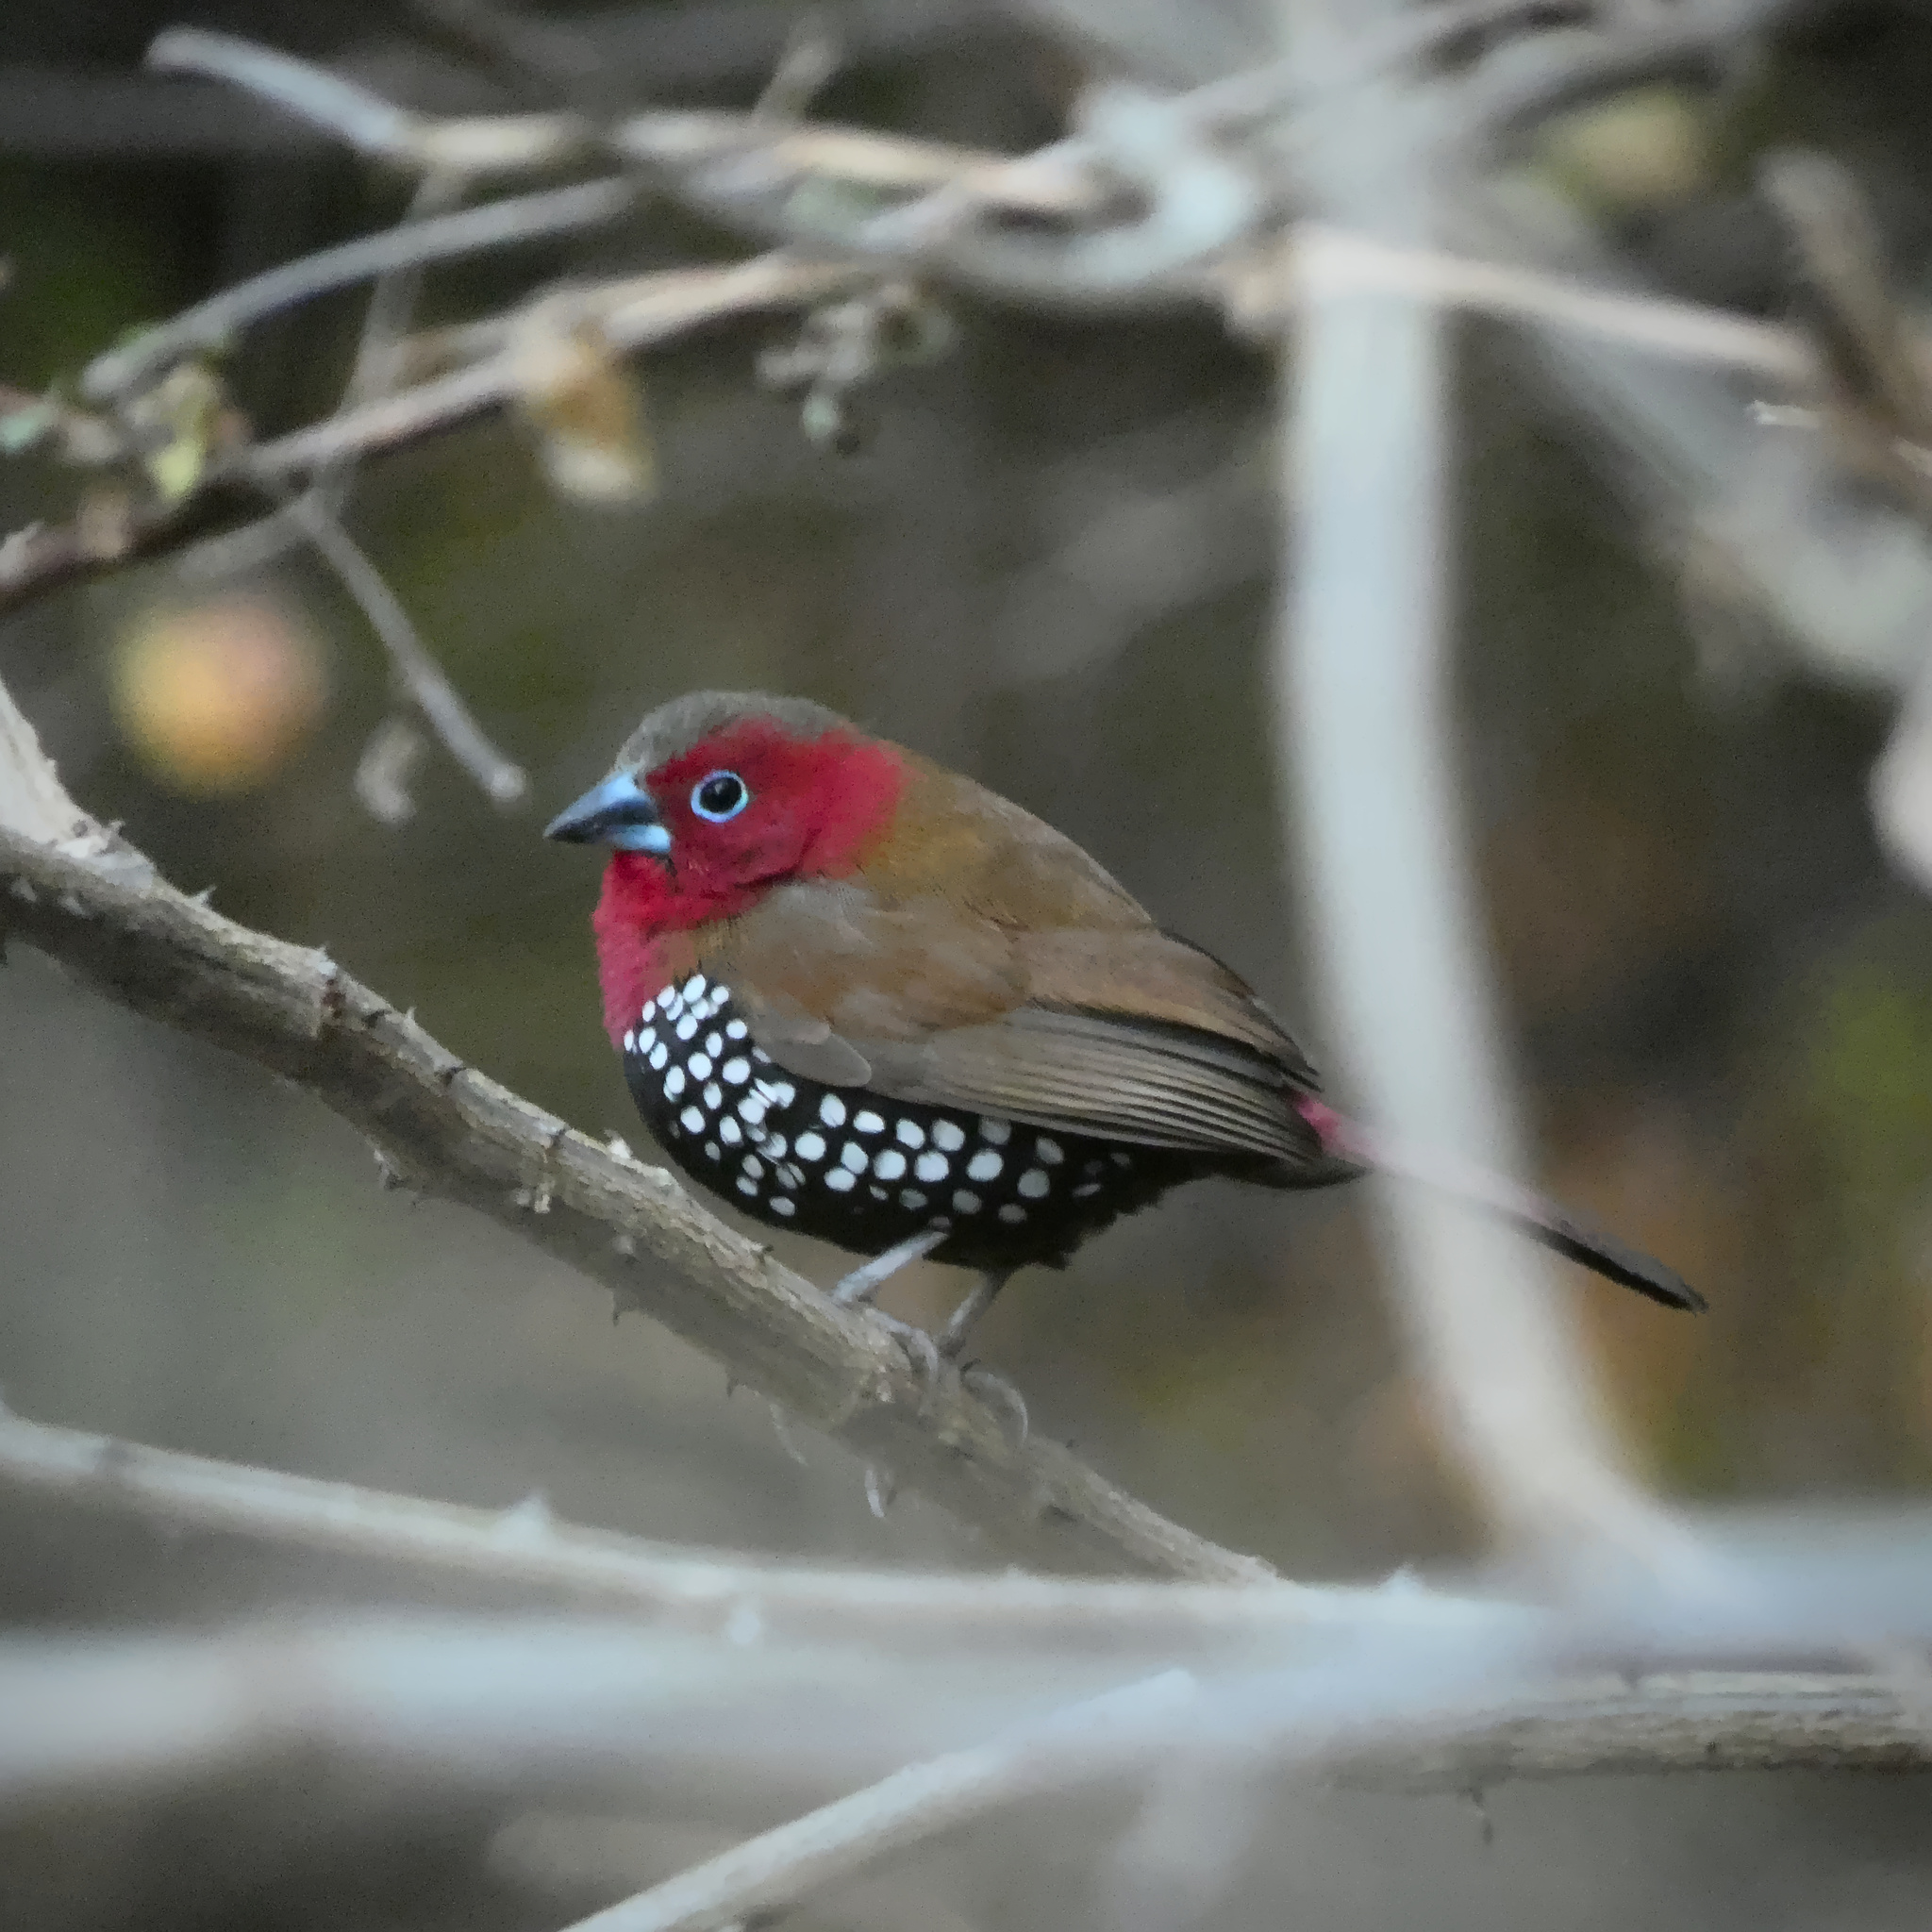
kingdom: Animalia
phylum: Chordata
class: Aves
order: Passeriformes
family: Estrildidae
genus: Hypargos
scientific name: Hypargos niveoguttatus
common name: Red-throated twinspot
